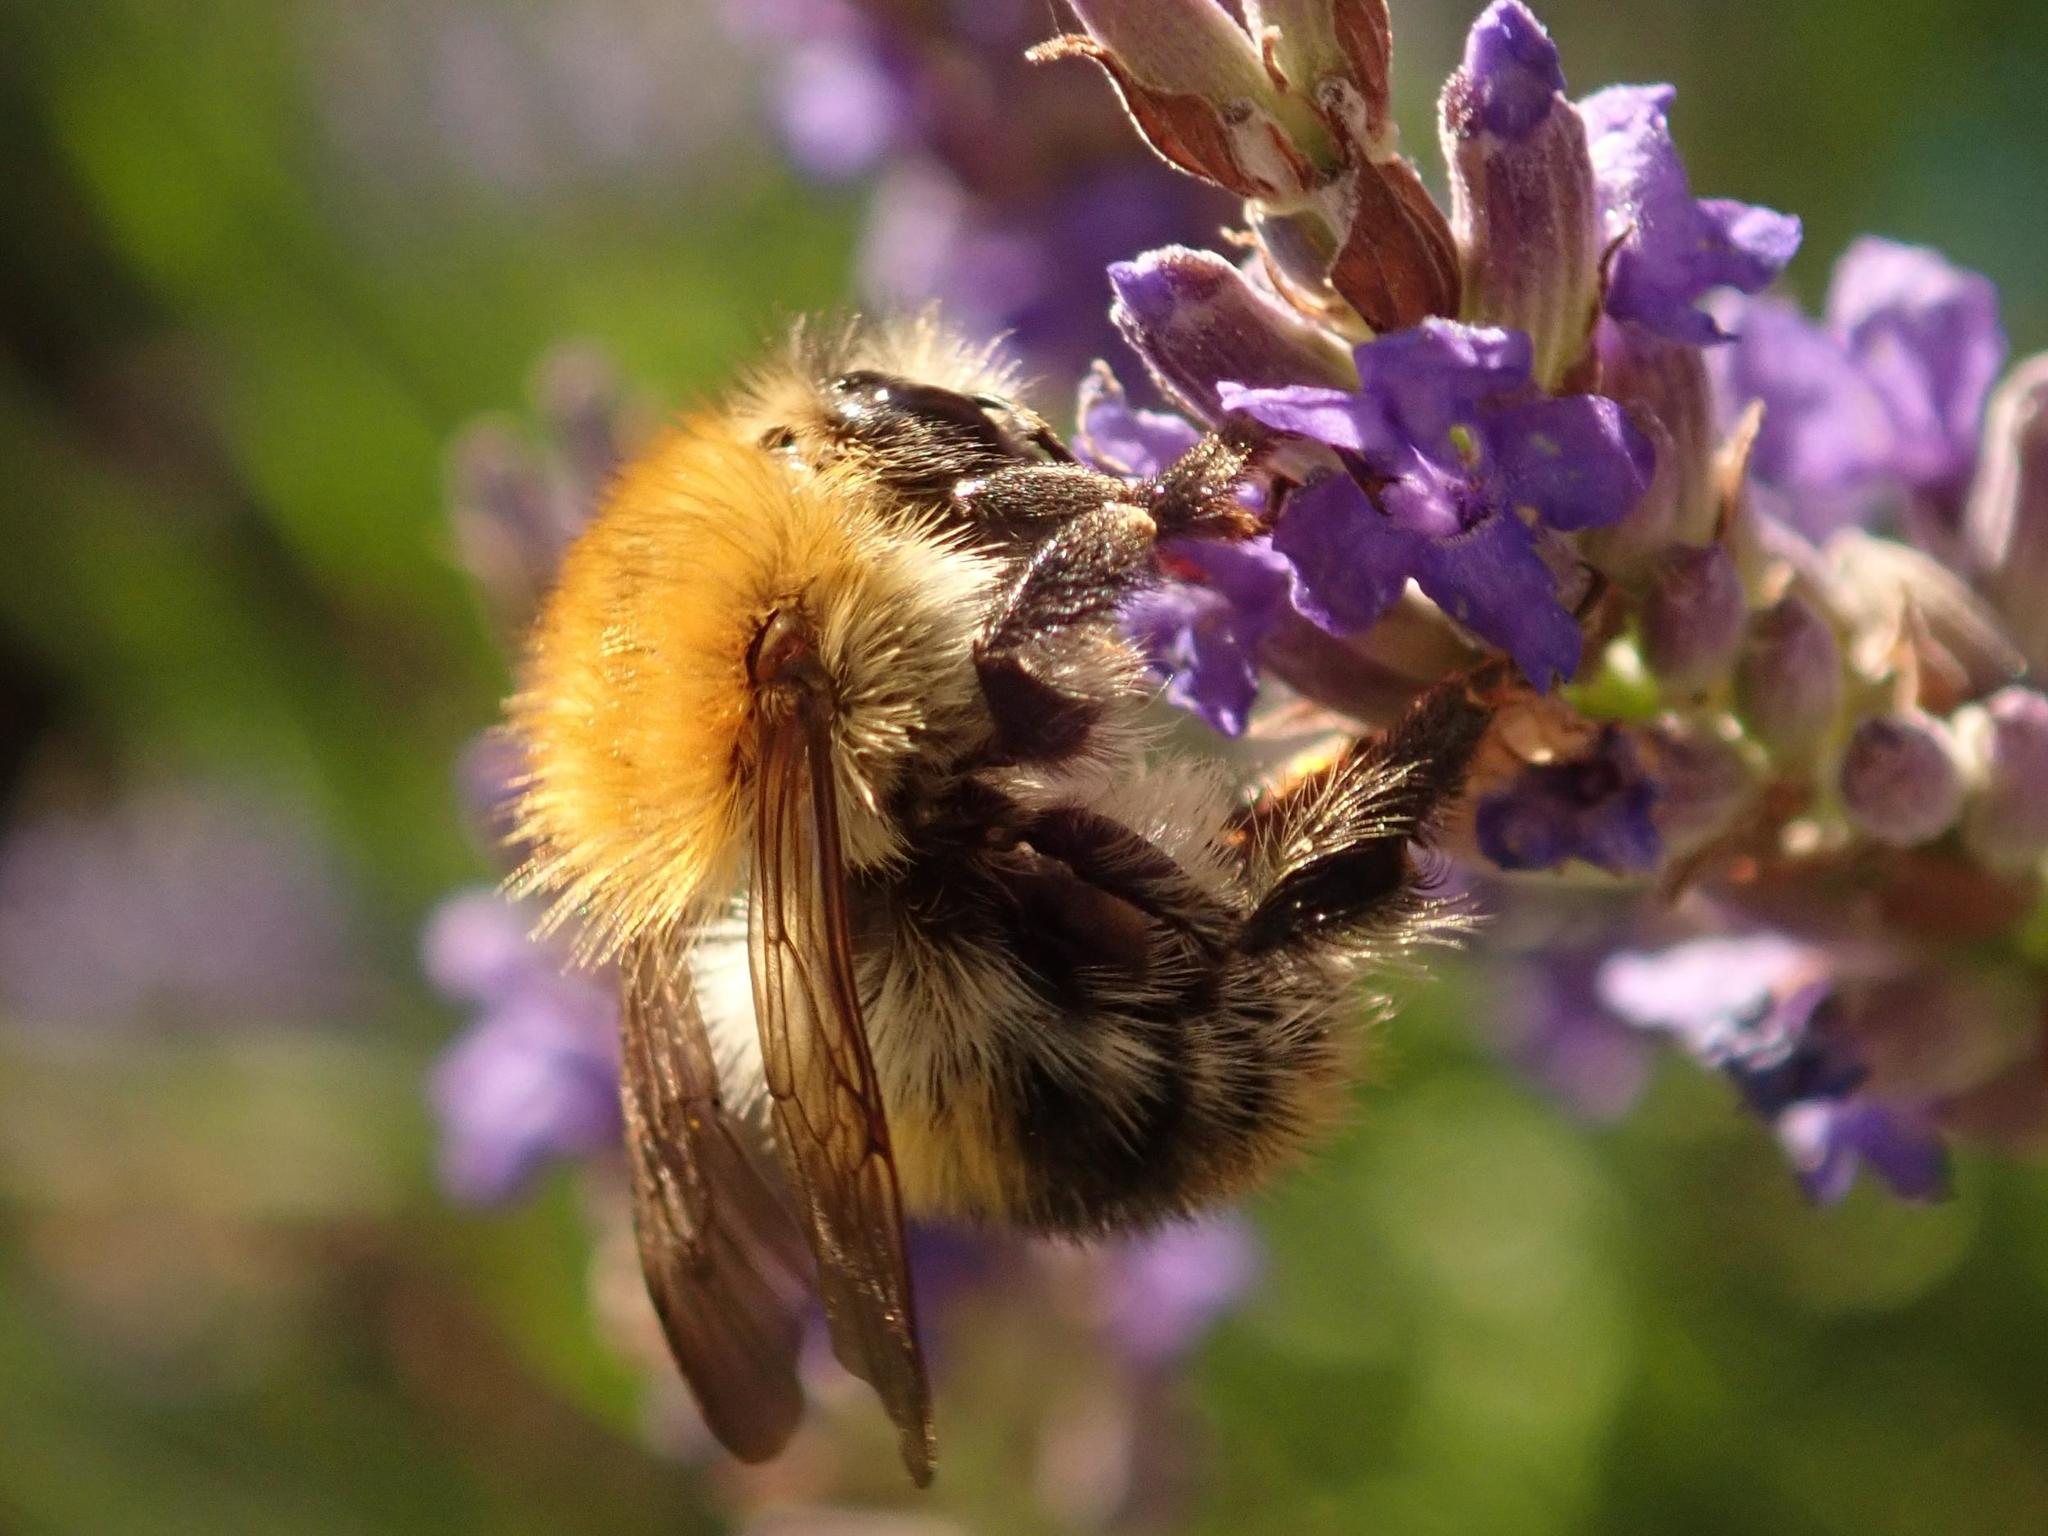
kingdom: Animalia
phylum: Arthropoda
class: Insecta
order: Hymenoptera
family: Apidae
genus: Bombus
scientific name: Bombus pascuorum
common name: Common carder bee
